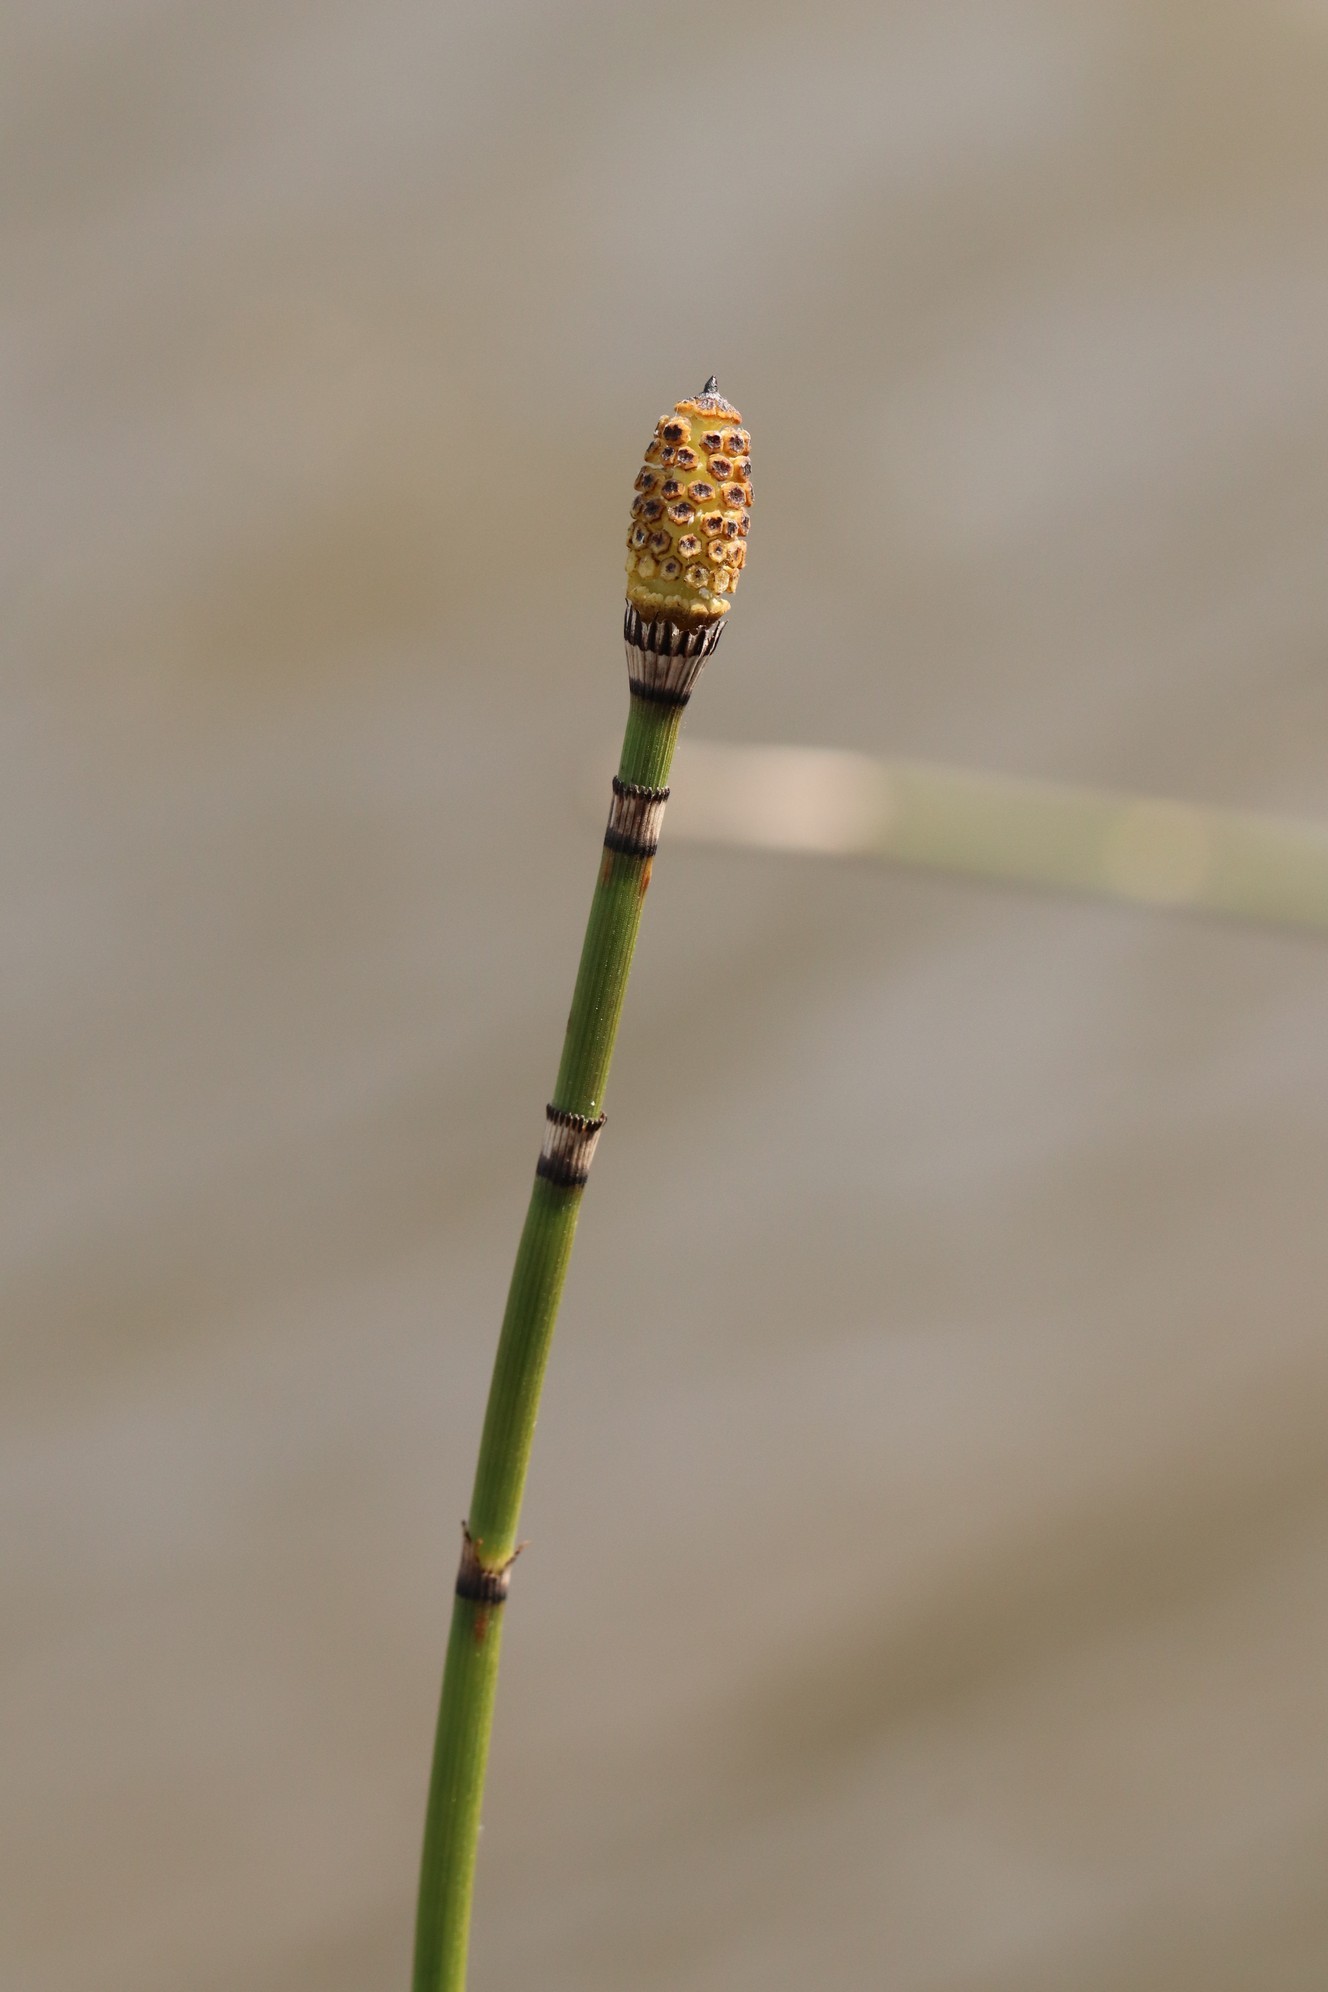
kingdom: Plantae
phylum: Tracheophyta
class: Polypodiopsida
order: Equisetales
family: Equisetaceae
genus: Equisetum
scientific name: Equisetum hyemale
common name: Rough horsetail
